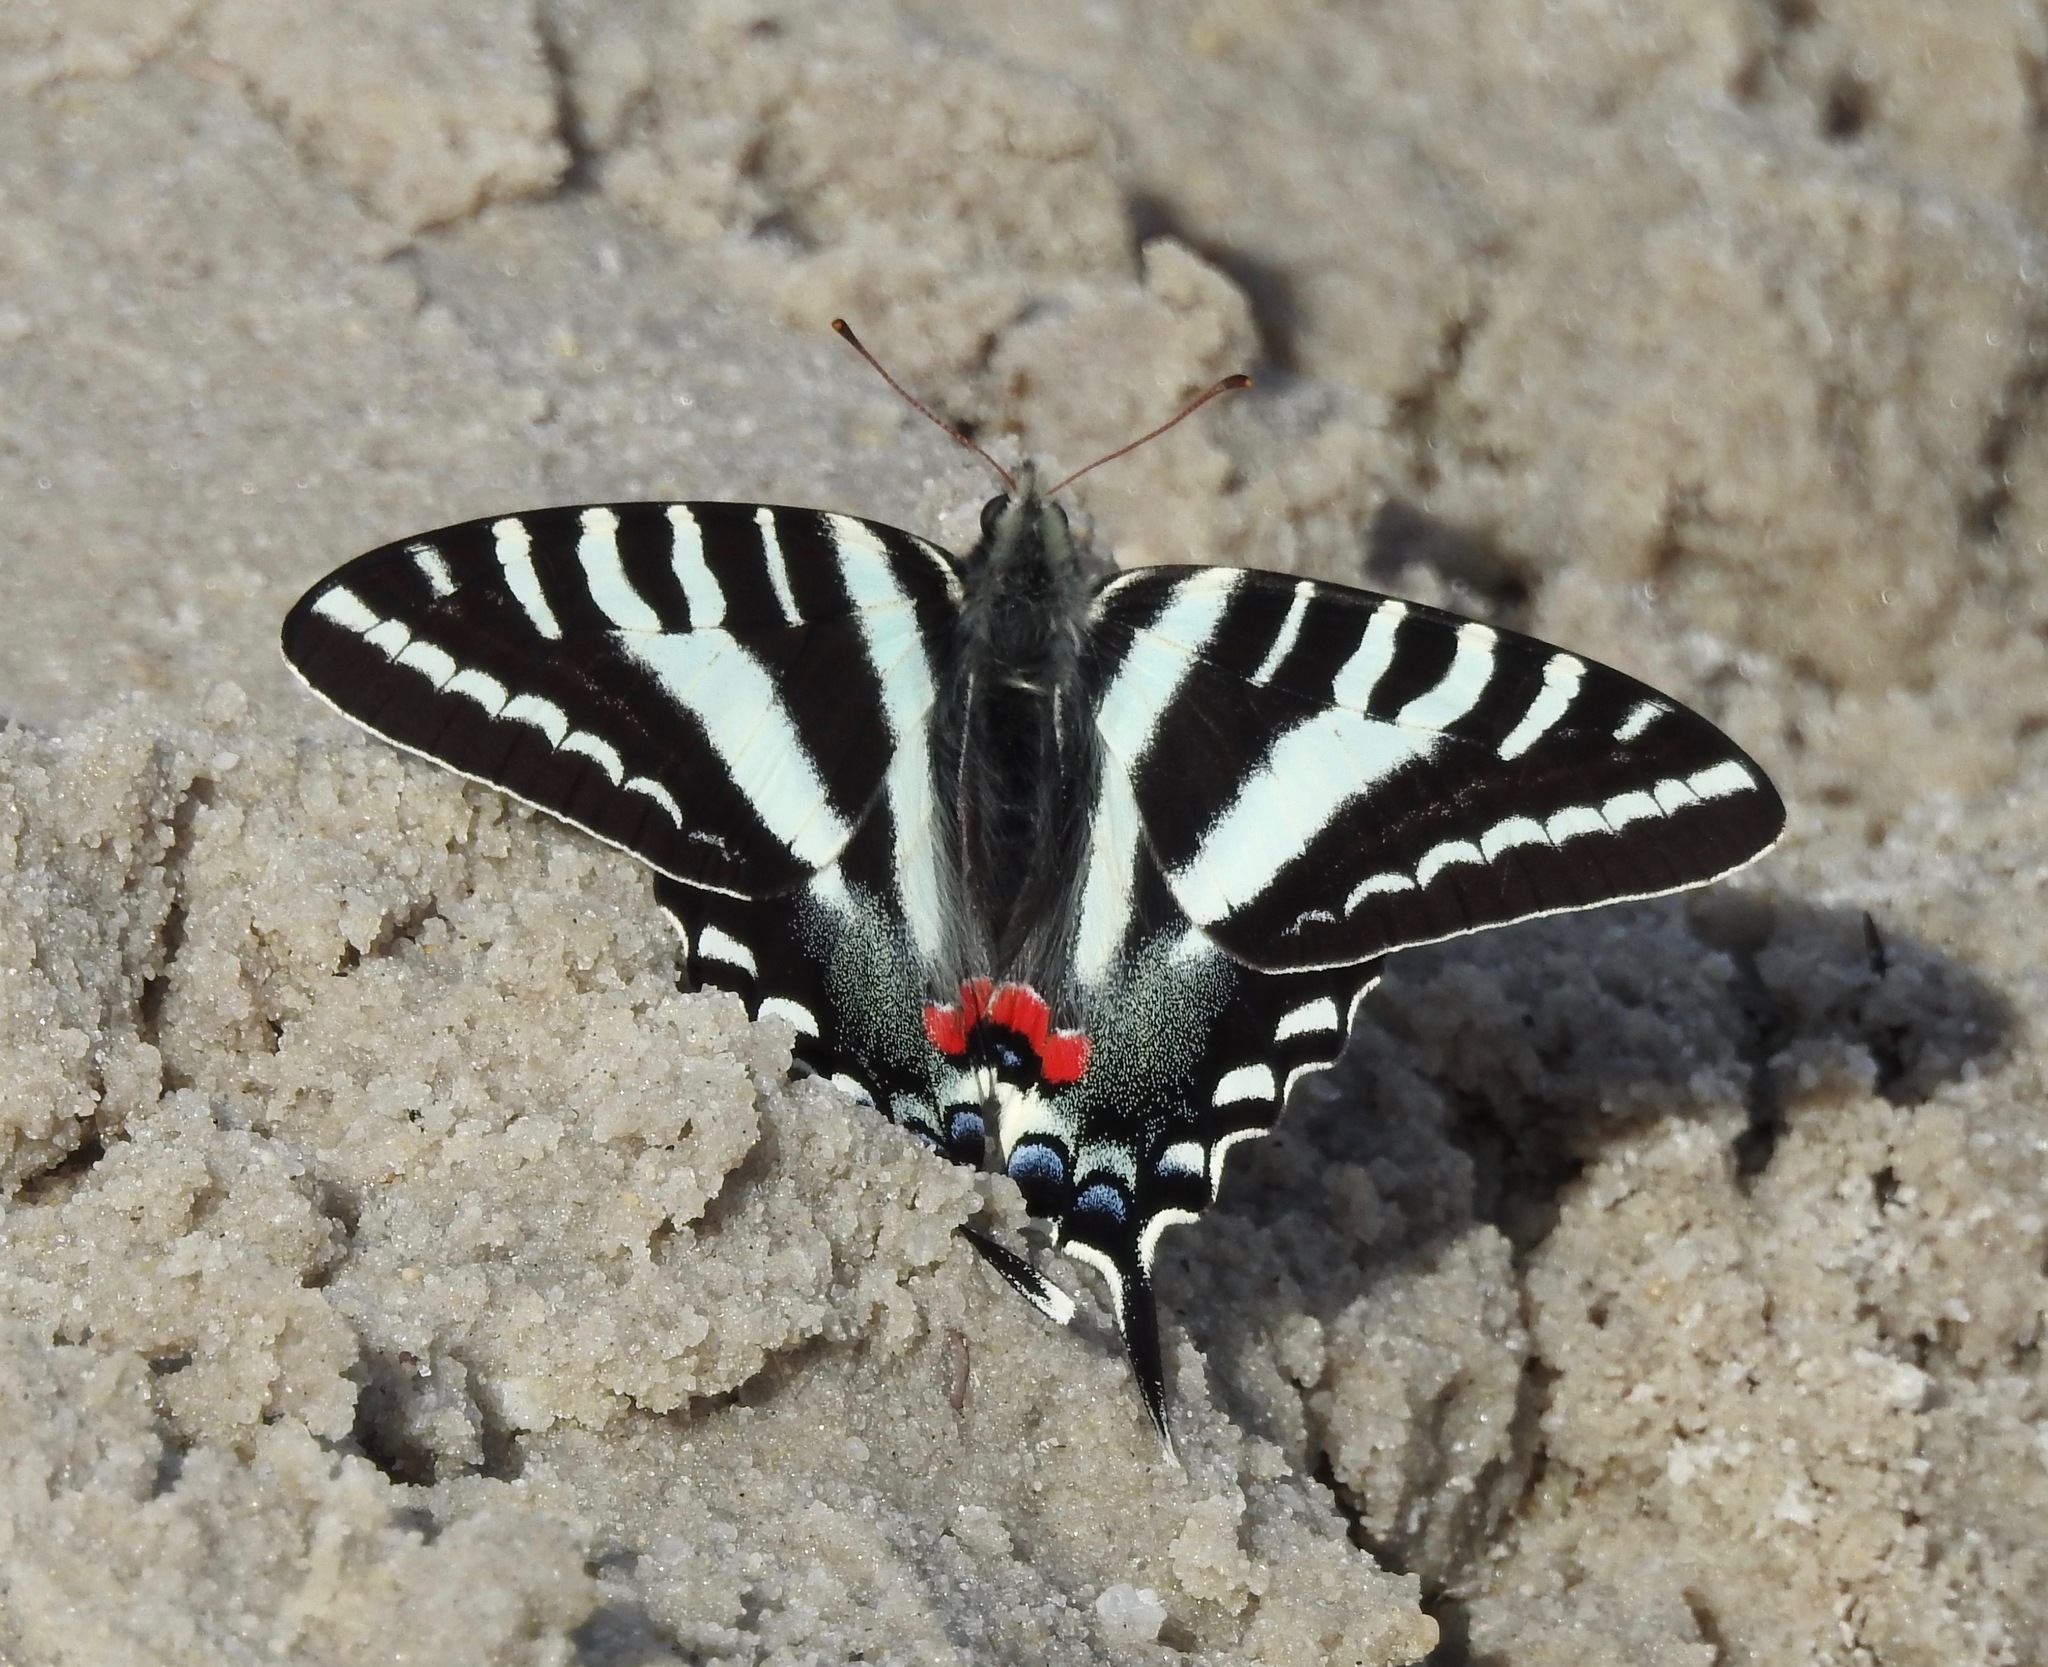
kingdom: Animalia
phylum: Arthropoda
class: Insecta
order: Lepidoptera
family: Papilionidae
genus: Protographium
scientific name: Protographium marcellus
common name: Zebra swallowtail
